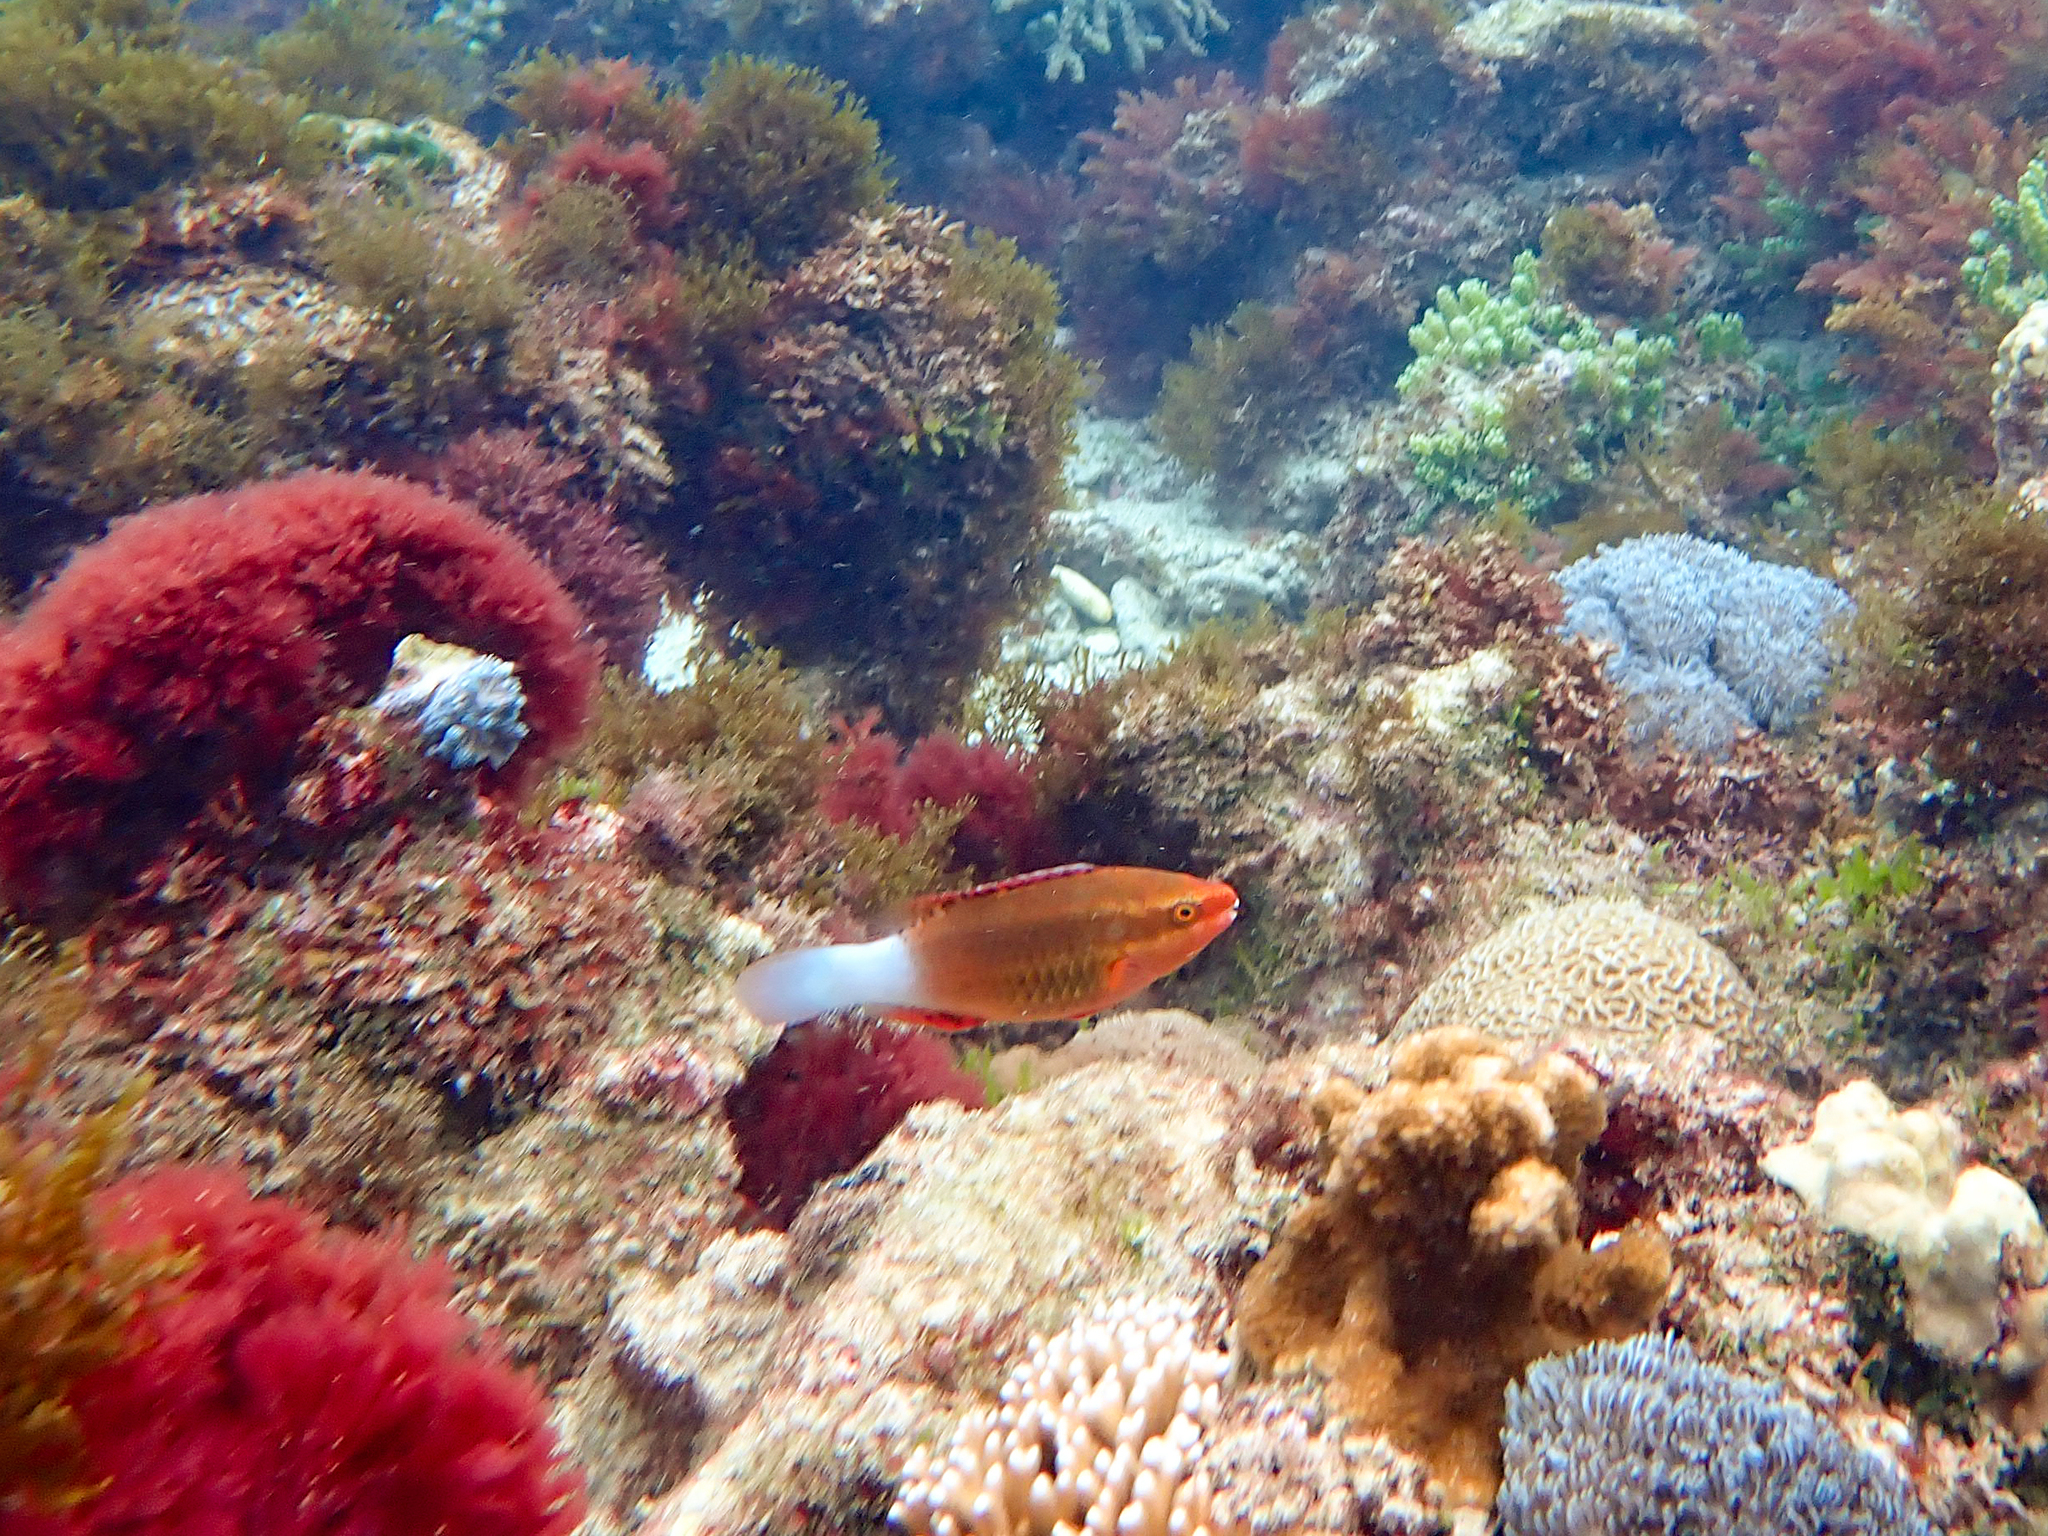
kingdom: Animalia
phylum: Chordata
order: Perciformes
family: Scaridae
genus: Scarus
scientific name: Scarus frenatus
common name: Bridled parrotfish
